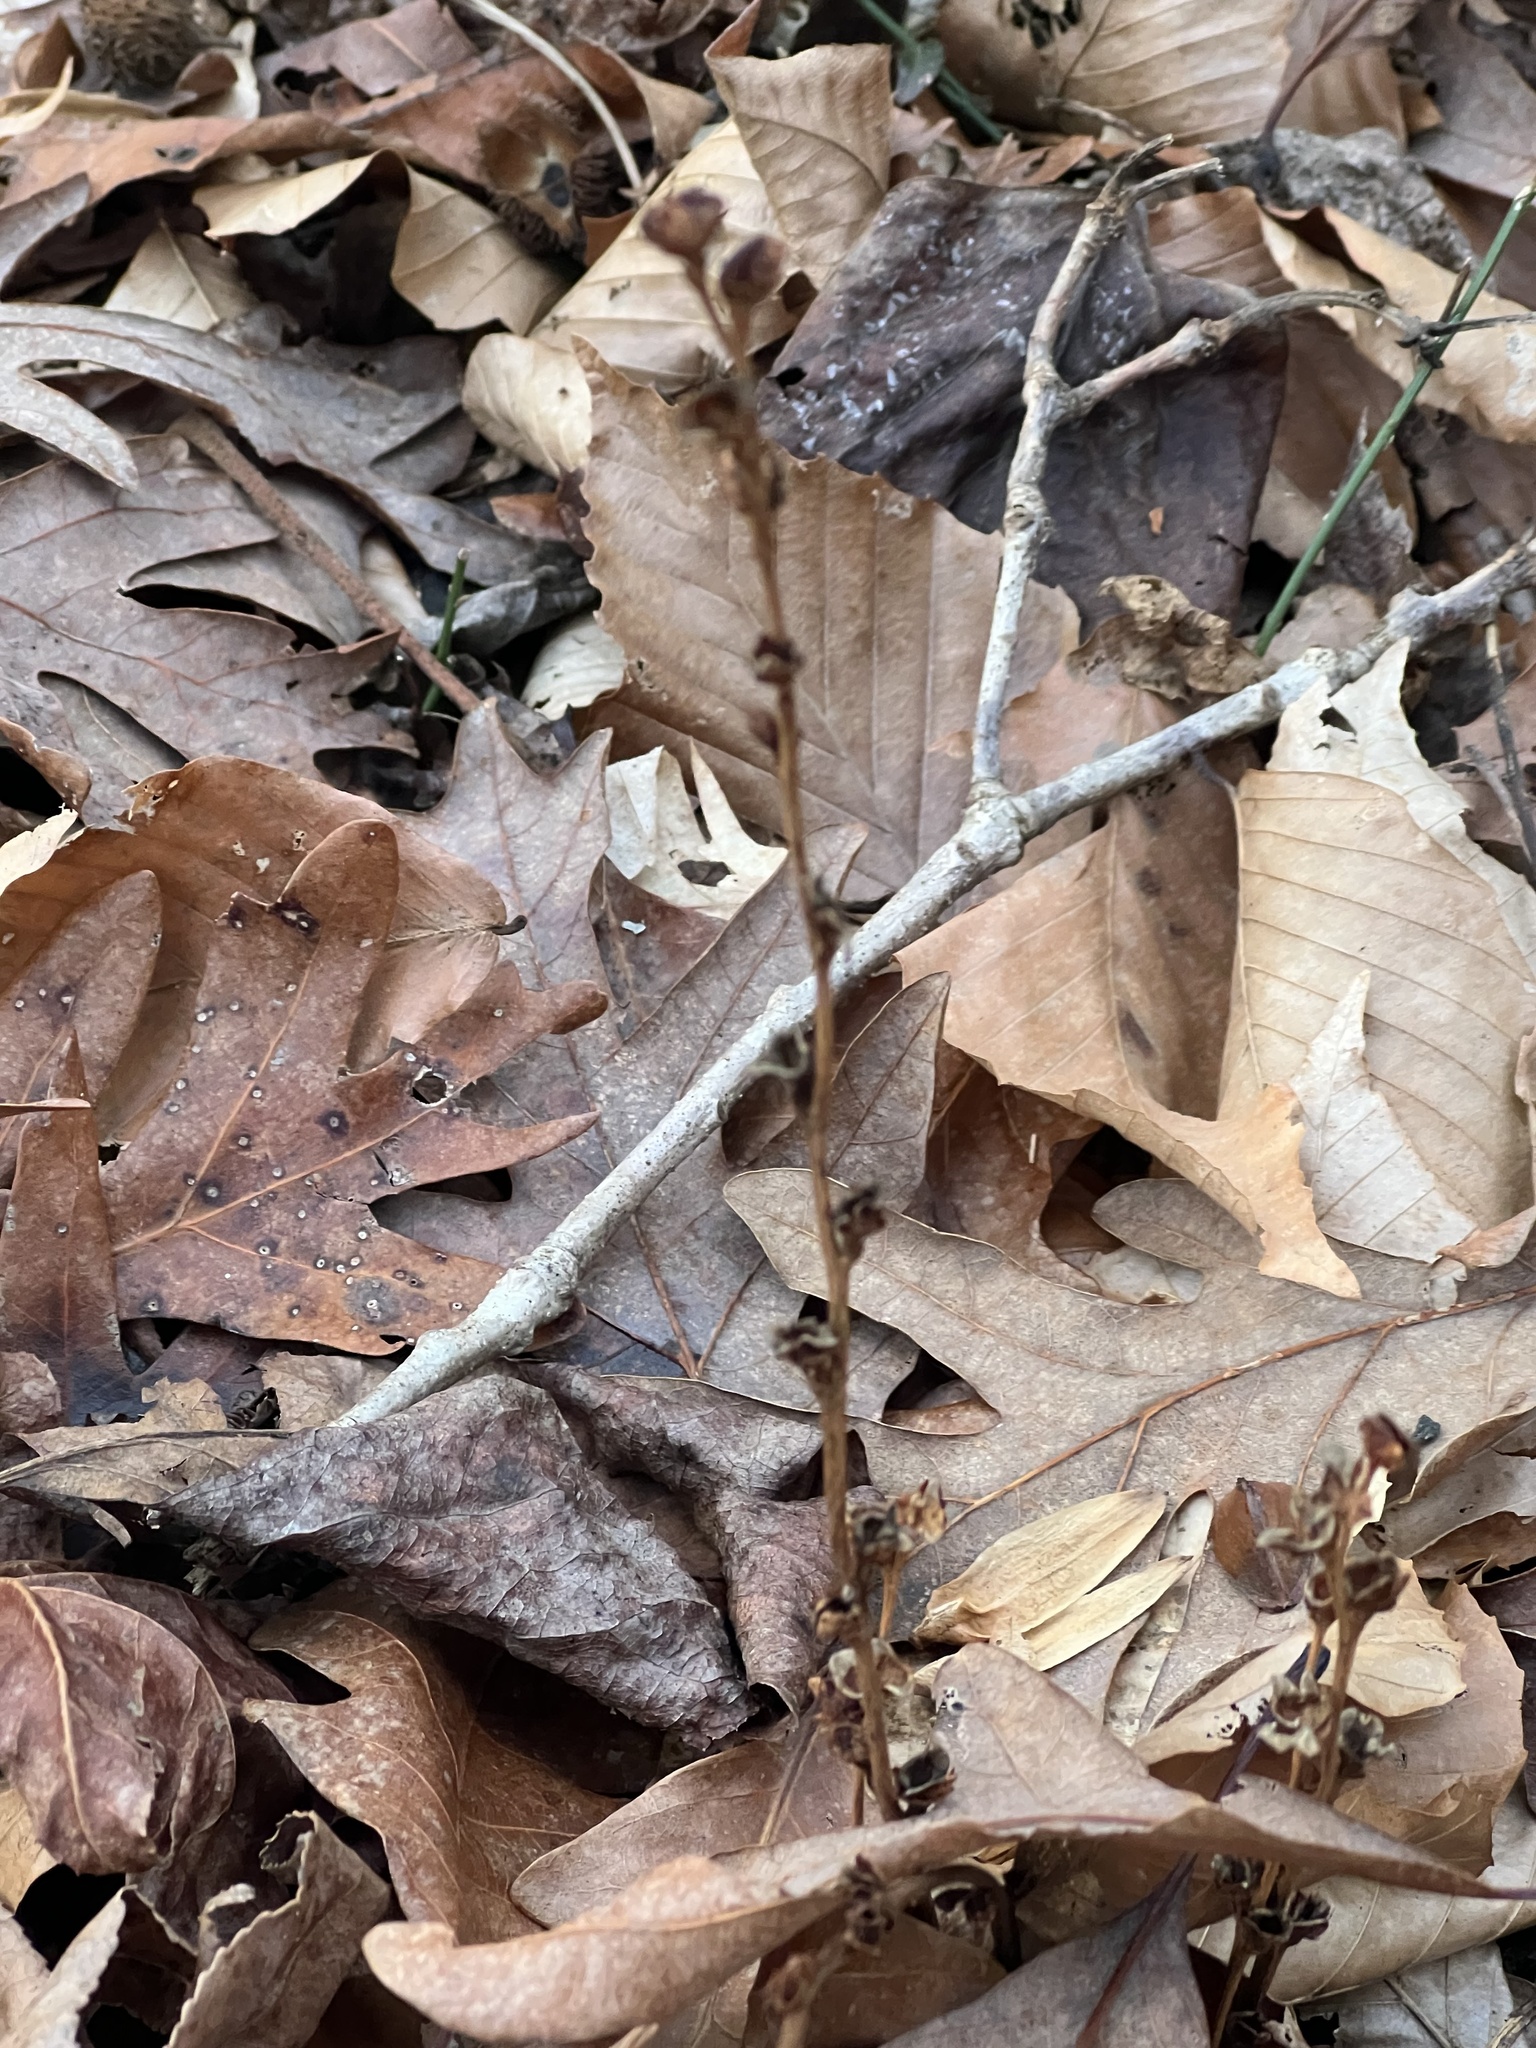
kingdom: Plantae
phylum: Tracheophyta
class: Magnoliopsida
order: Lamiales
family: Orobanchaceae
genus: Epifagus
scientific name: Epifagus virginiana
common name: Beechdrops
